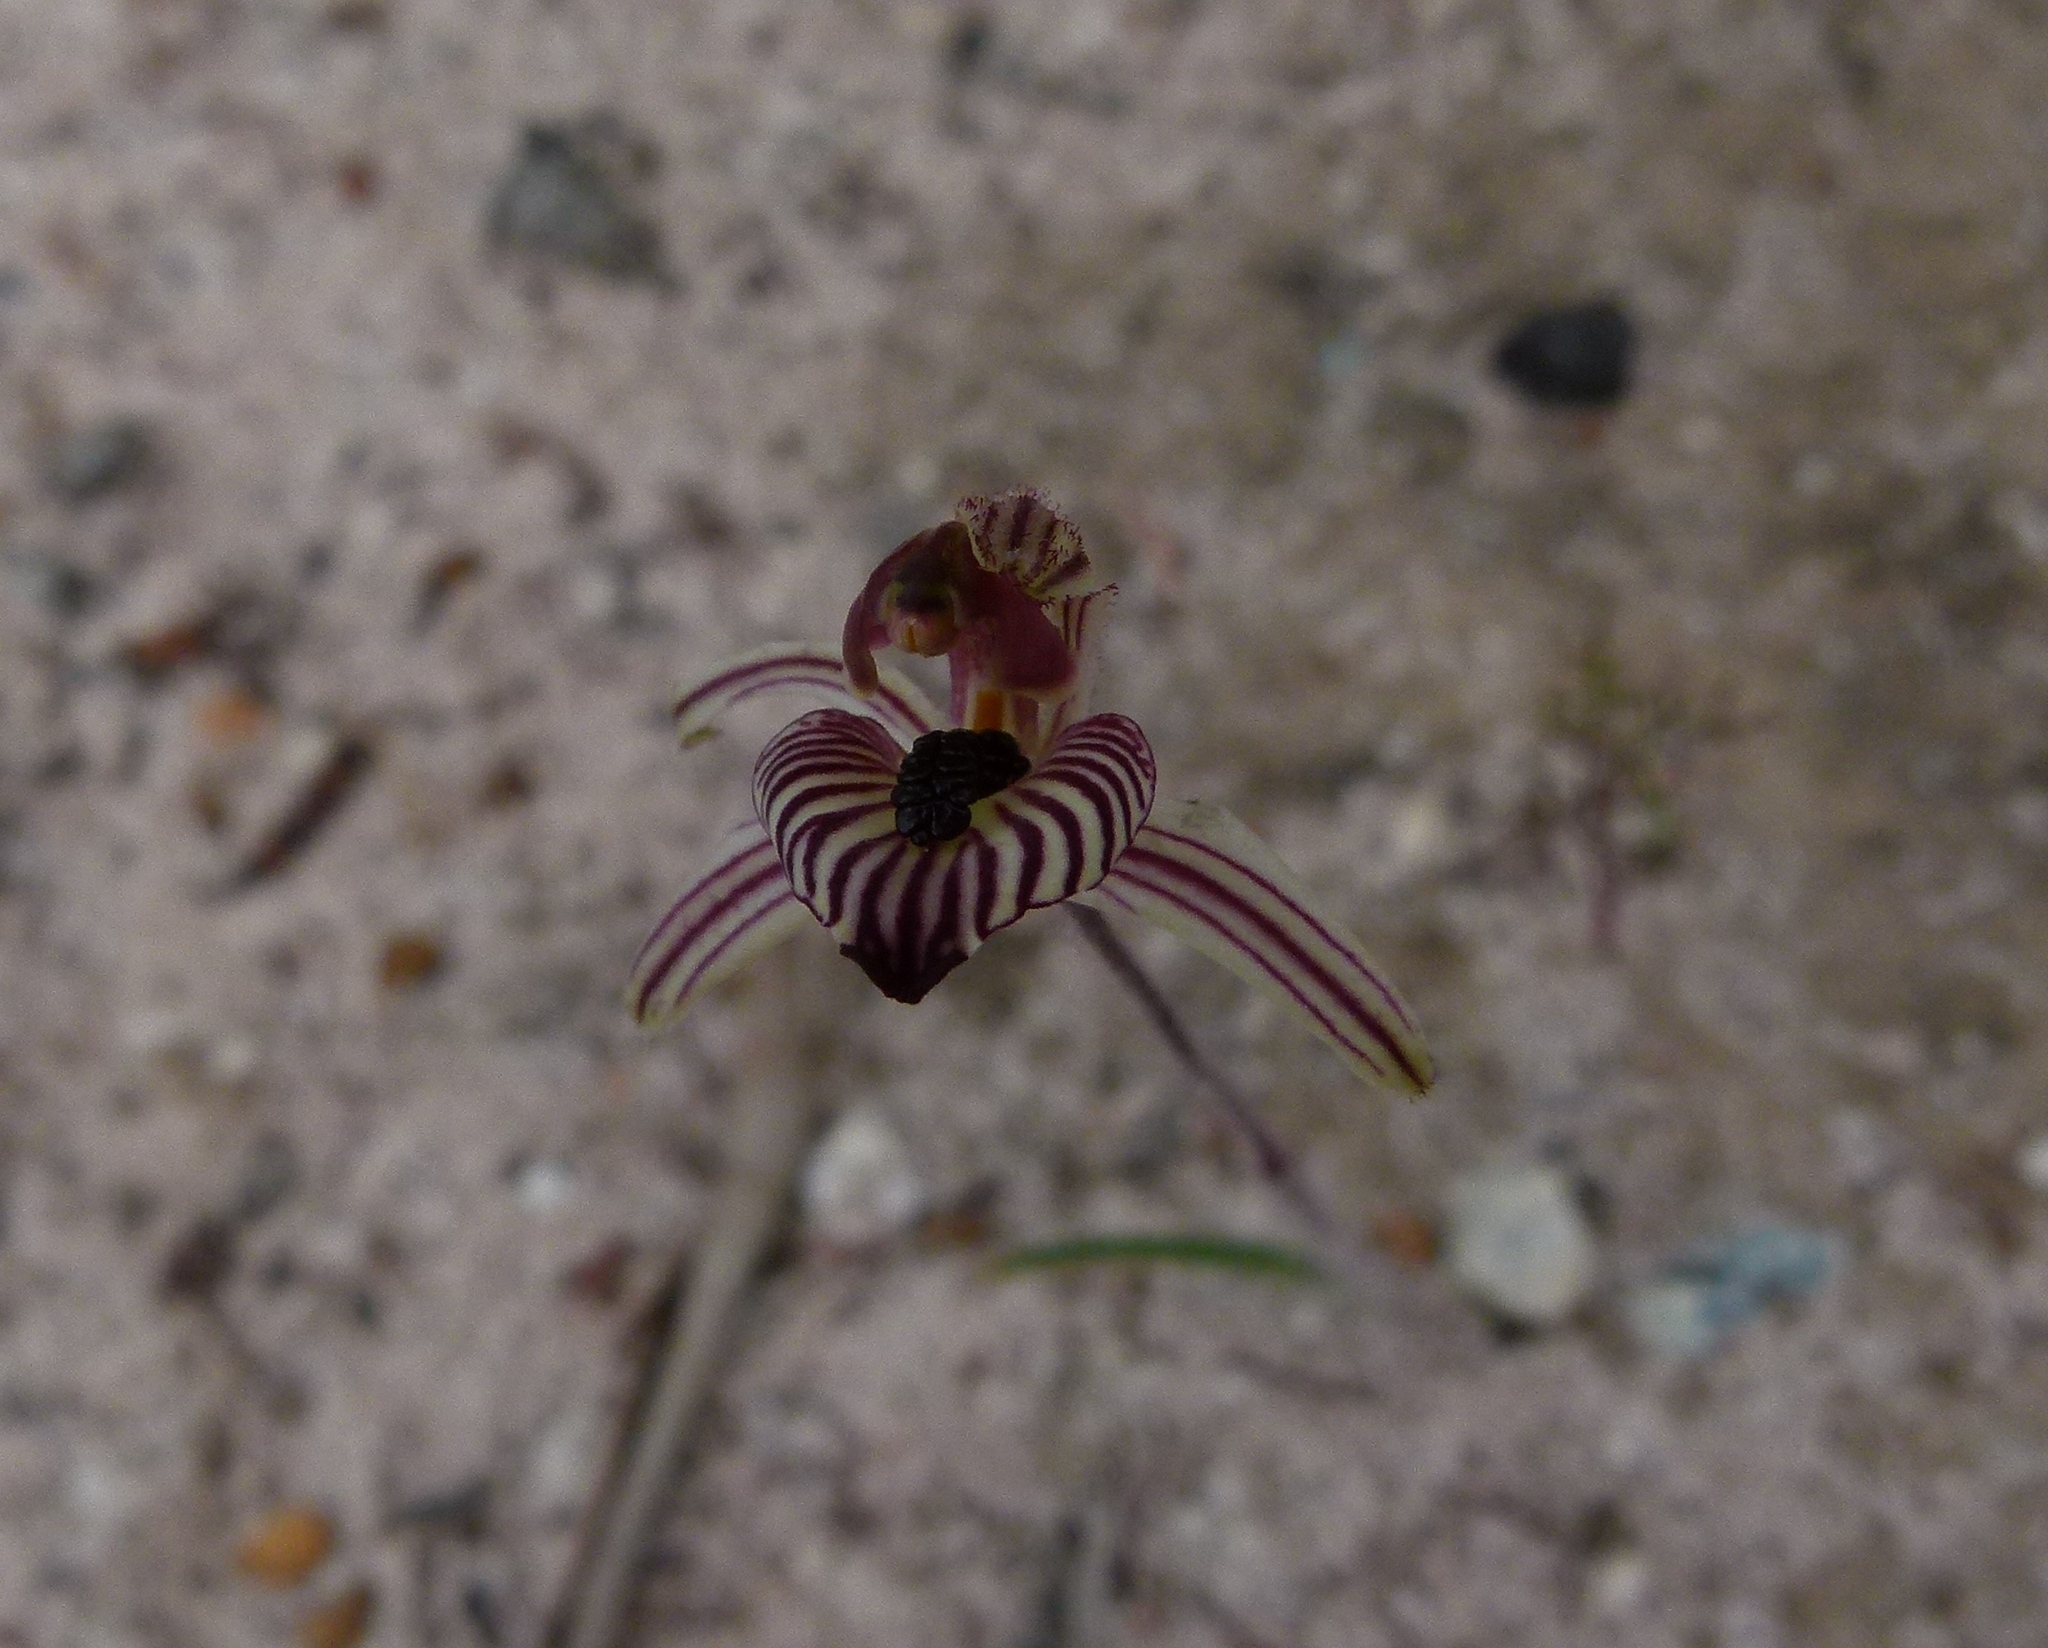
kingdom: Plantae
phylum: Tracheophyta
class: Liliopsida
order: Asparagales
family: Orchidaceae
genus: Caladenia
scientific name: Caladenia cairnsiana
